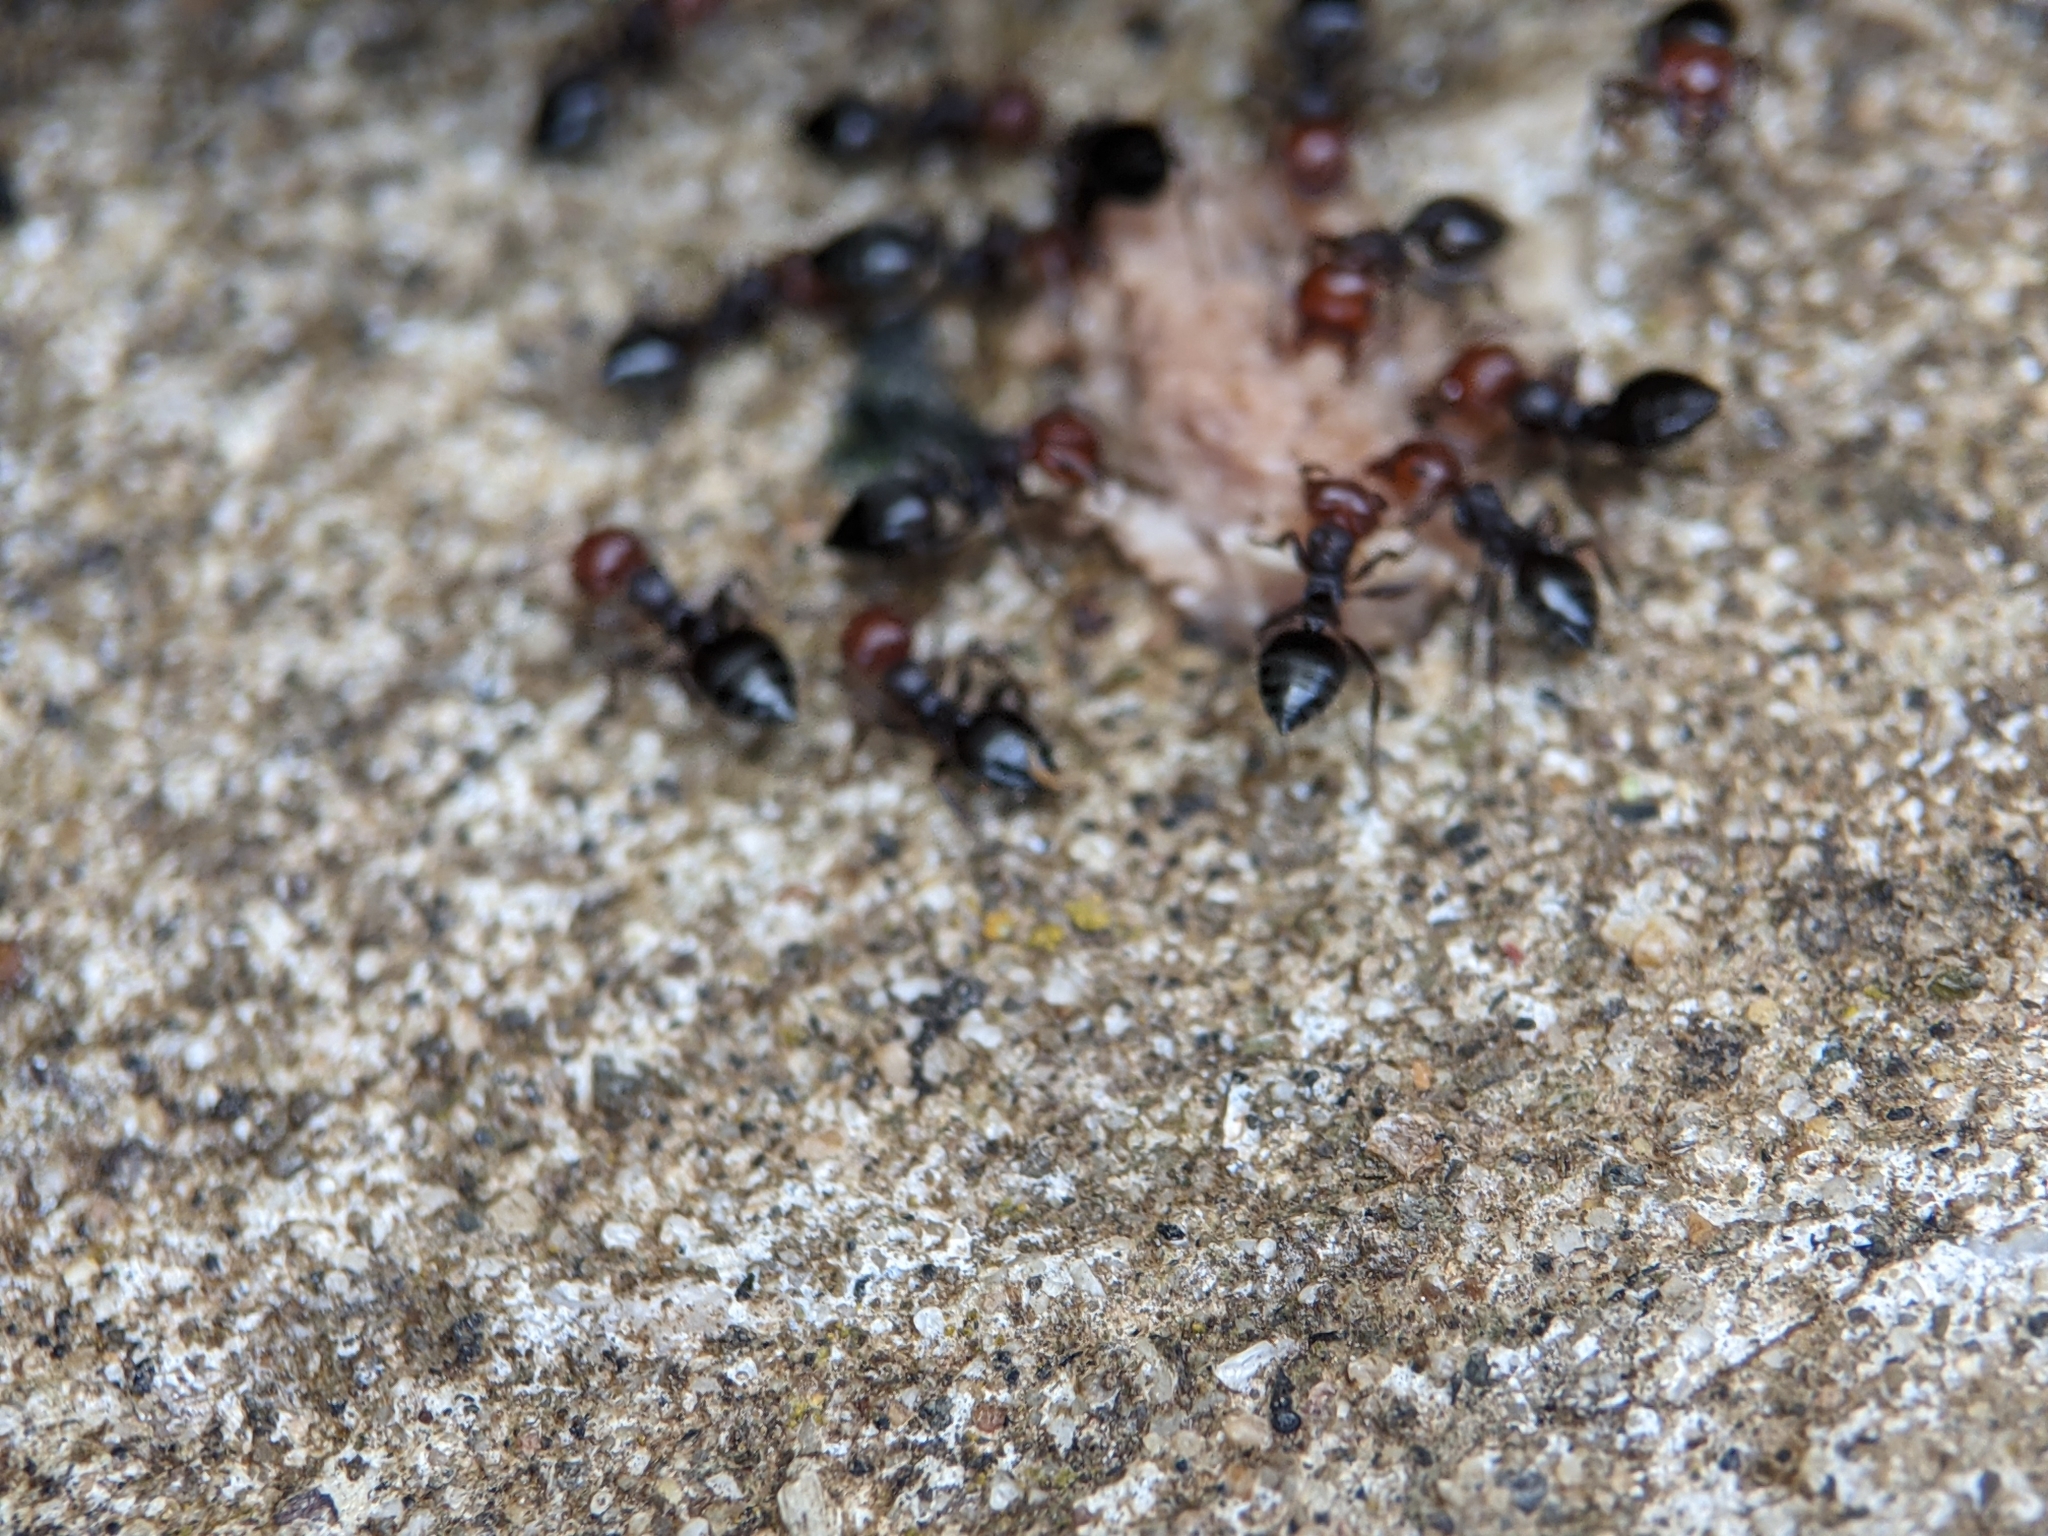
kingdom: Animalia
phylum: Arthropoda
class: Insecta
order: Hymenoptera
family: Formicidae
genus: Crematogaster
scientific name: Crematogaster scutellaris
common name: Fourmi du liège
